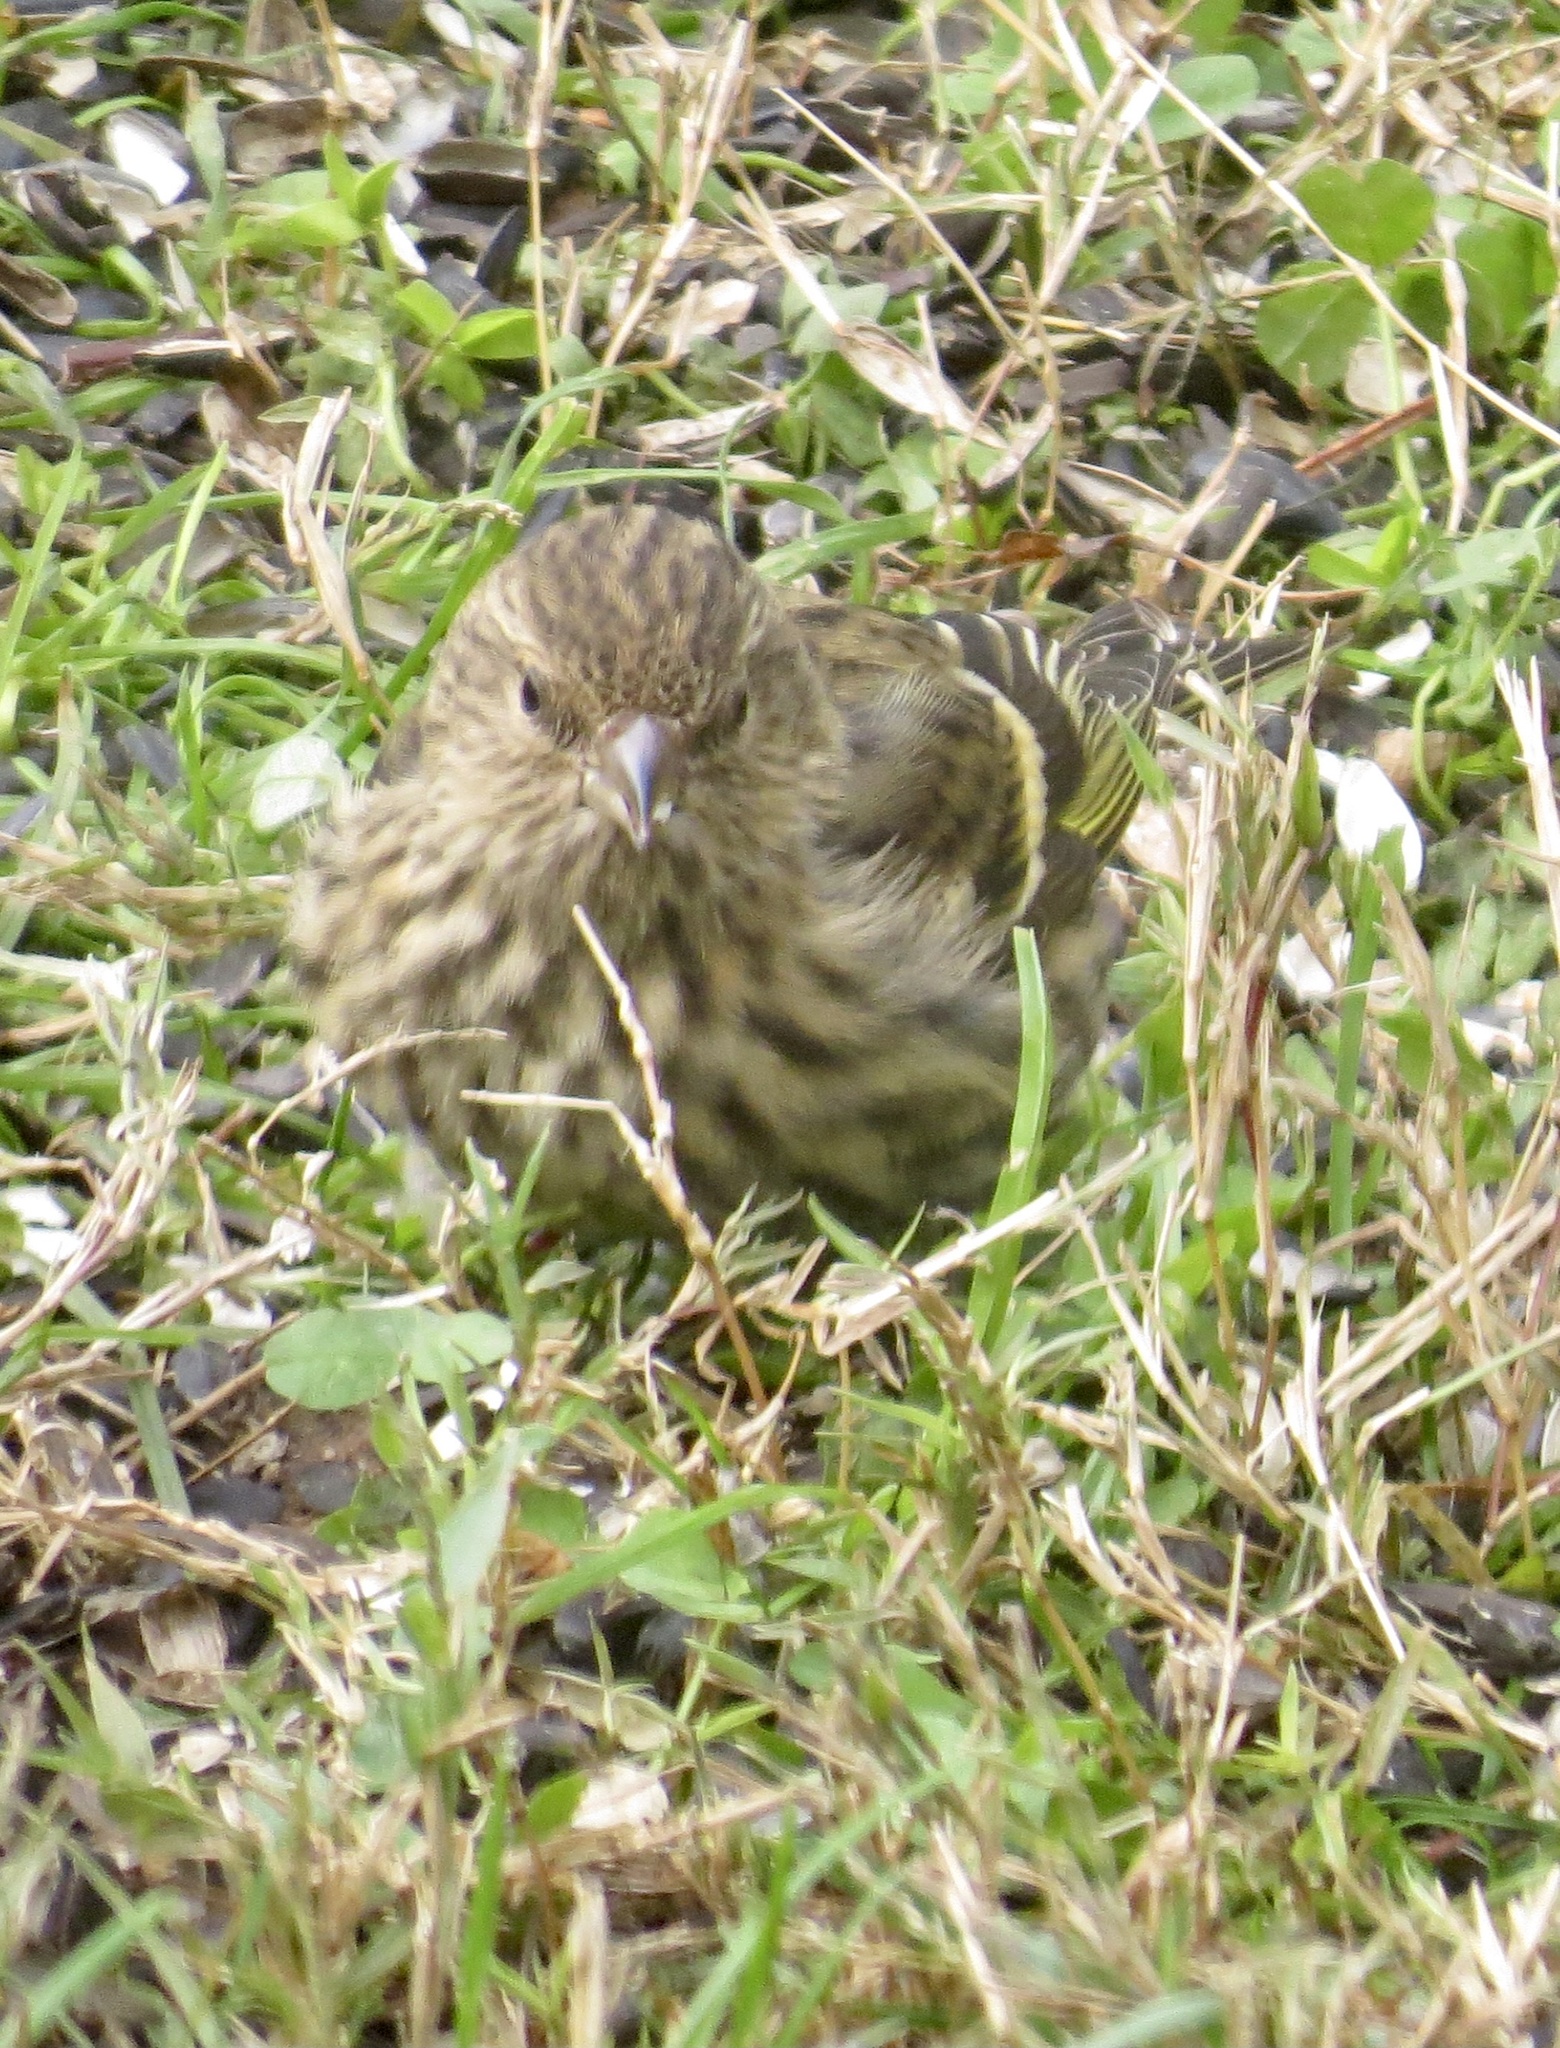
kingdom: Animalia
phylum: Chordata
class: Aves
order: Passeriformes
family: Fringillidae
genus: Spinus
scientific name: Spinus pinus
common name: Pine siskin
